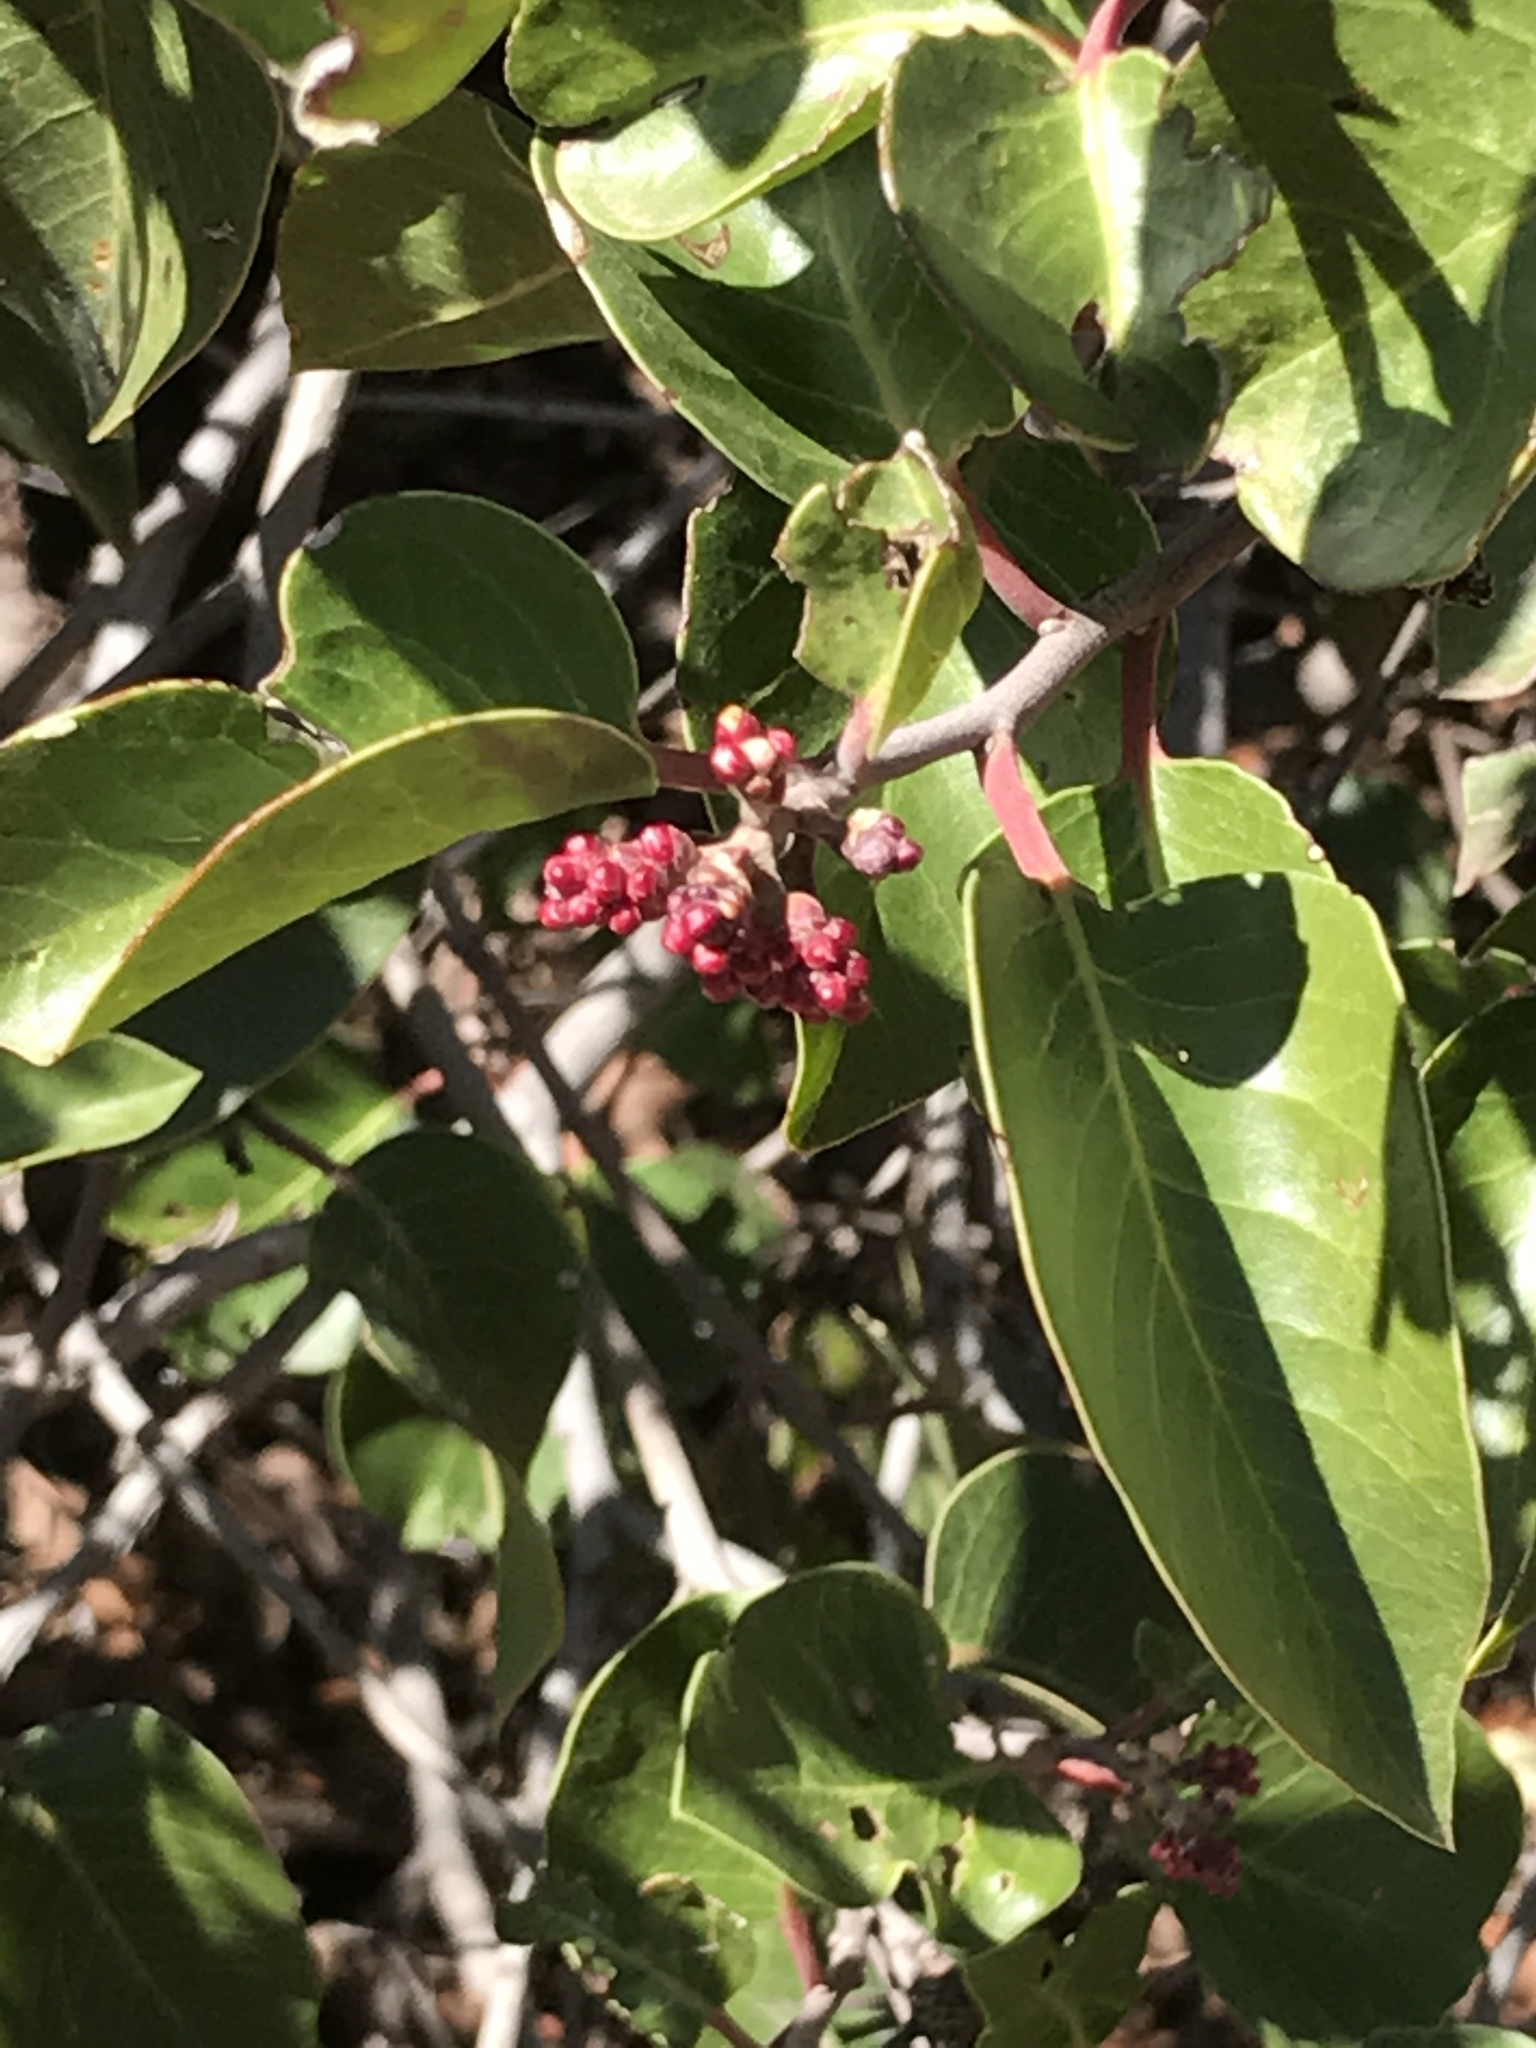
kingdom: Plantae
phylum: Tracheophyta
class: Magnoliopsida
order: Sapindales
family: Anacardiaceae
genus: Rhus
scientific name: Rhus ovata
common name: Sugar sumac
